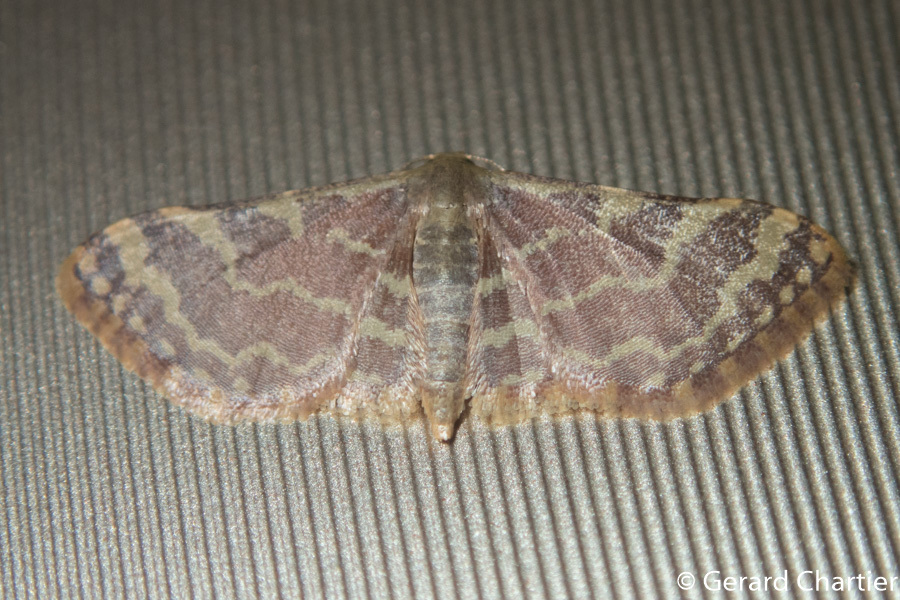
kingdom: Animalia
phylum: Arthropoda
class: Insecta
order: Lepidoptera
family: Geometridae
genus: Lophophleps
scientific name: Lophophleps purpurea
